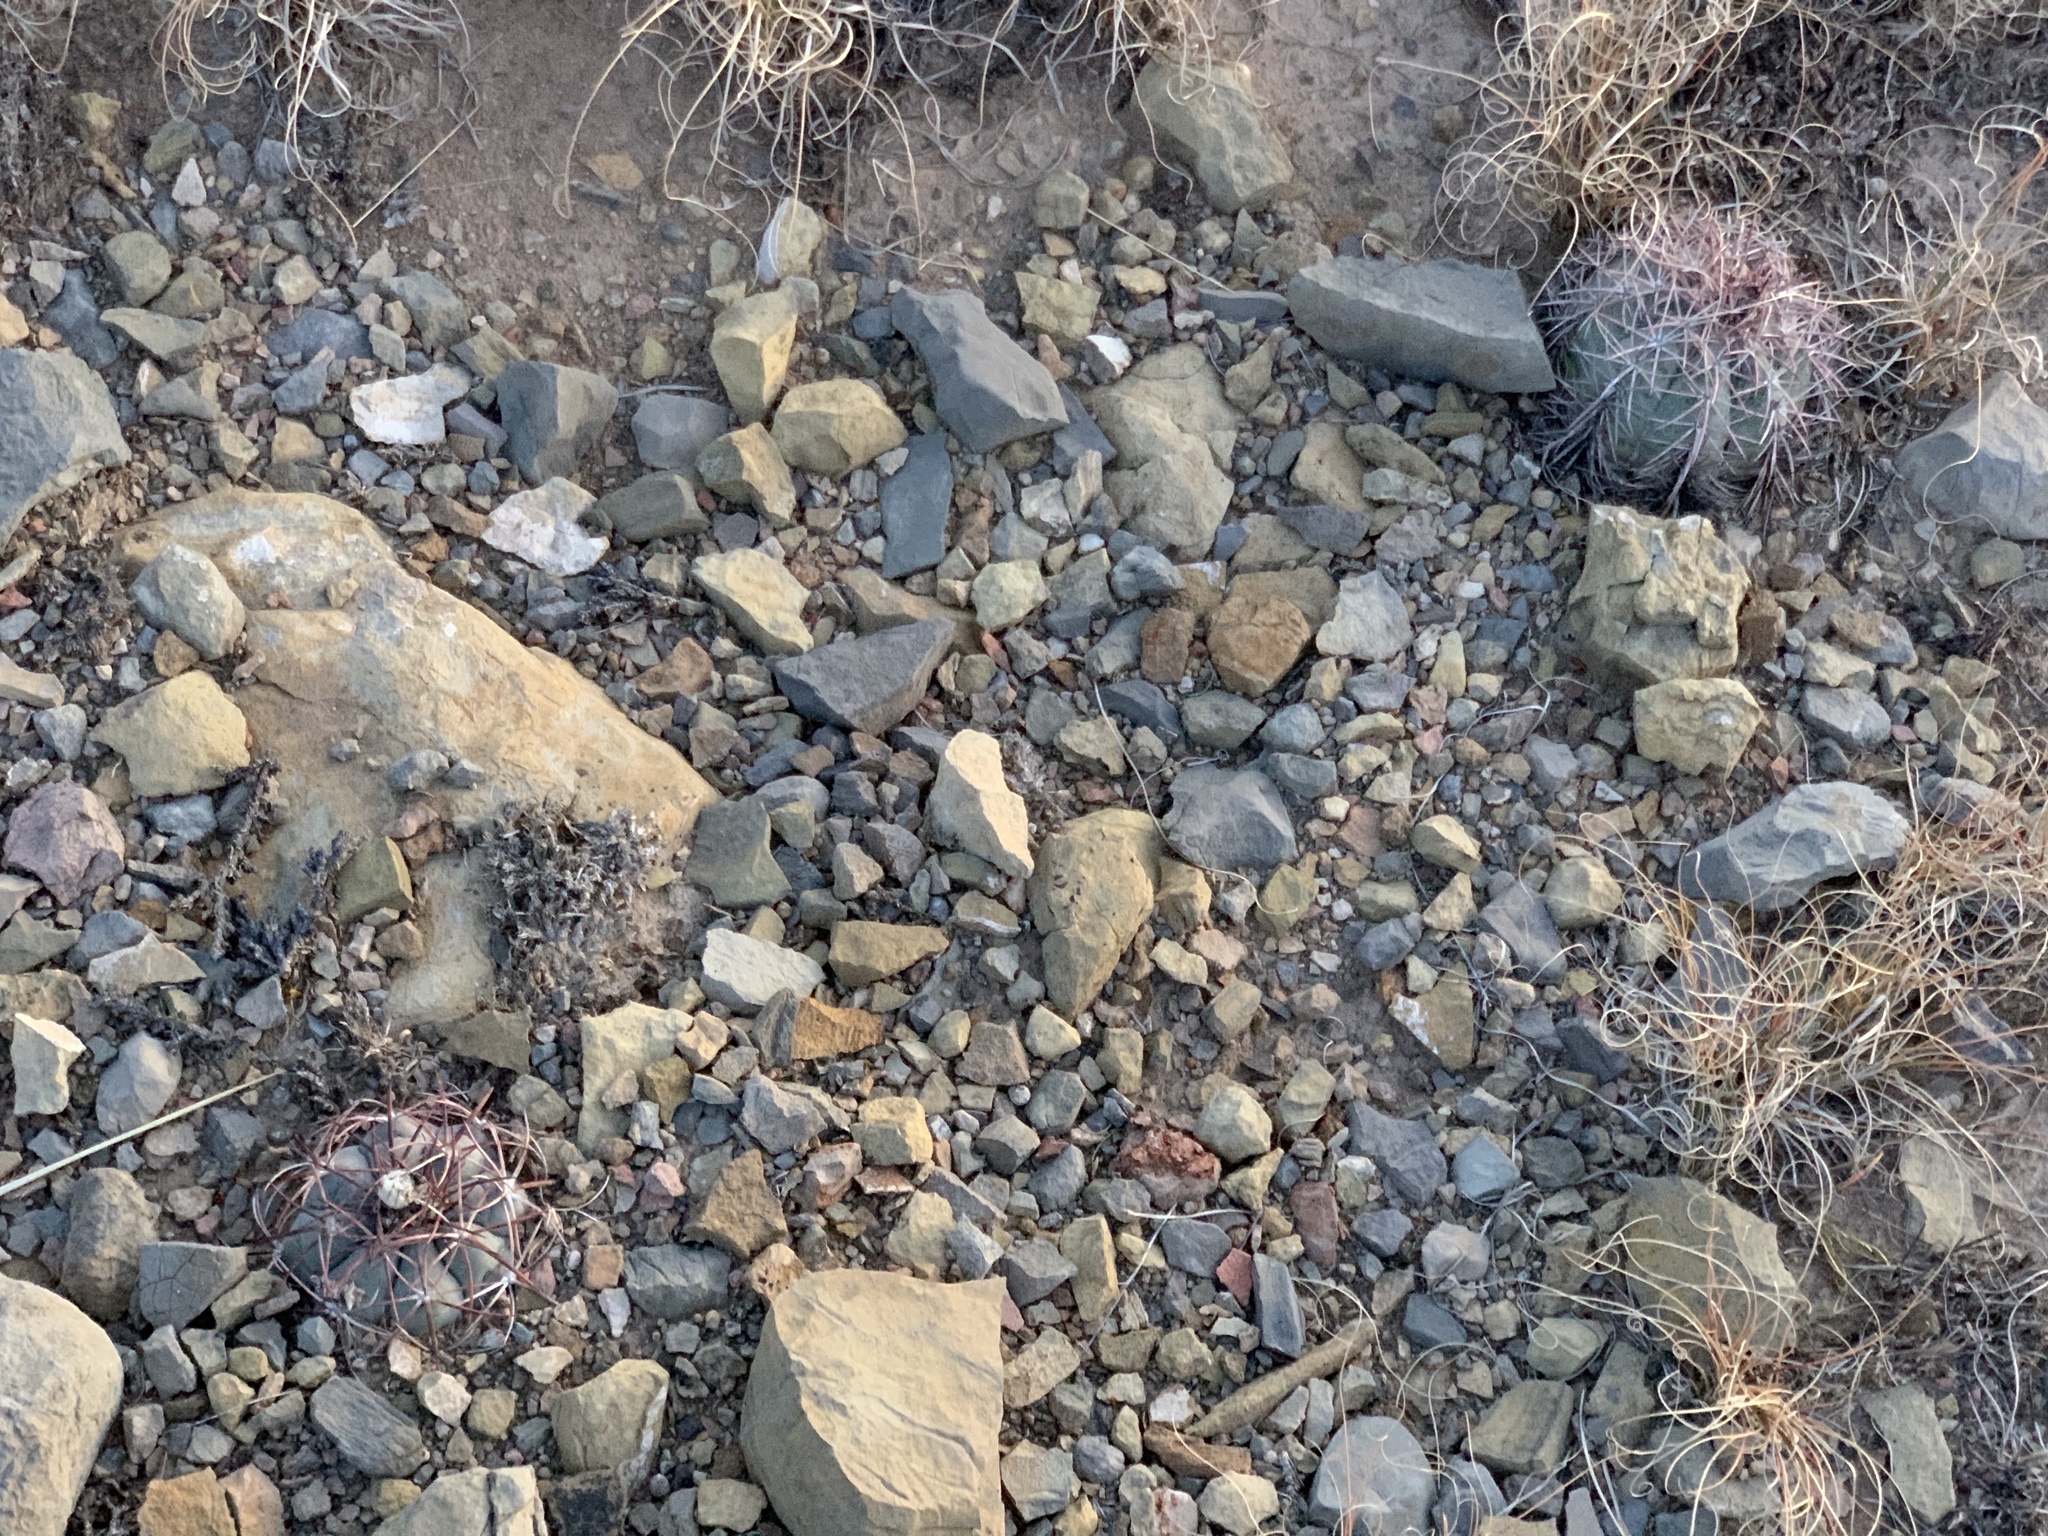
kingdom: Plantae
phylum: Tracheophyta
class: Magnoliopsida
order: Caryophyllales
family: Cactaceae
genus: Echinocactus
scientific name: Echinocactus horizonthalonius
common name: Devilshead
